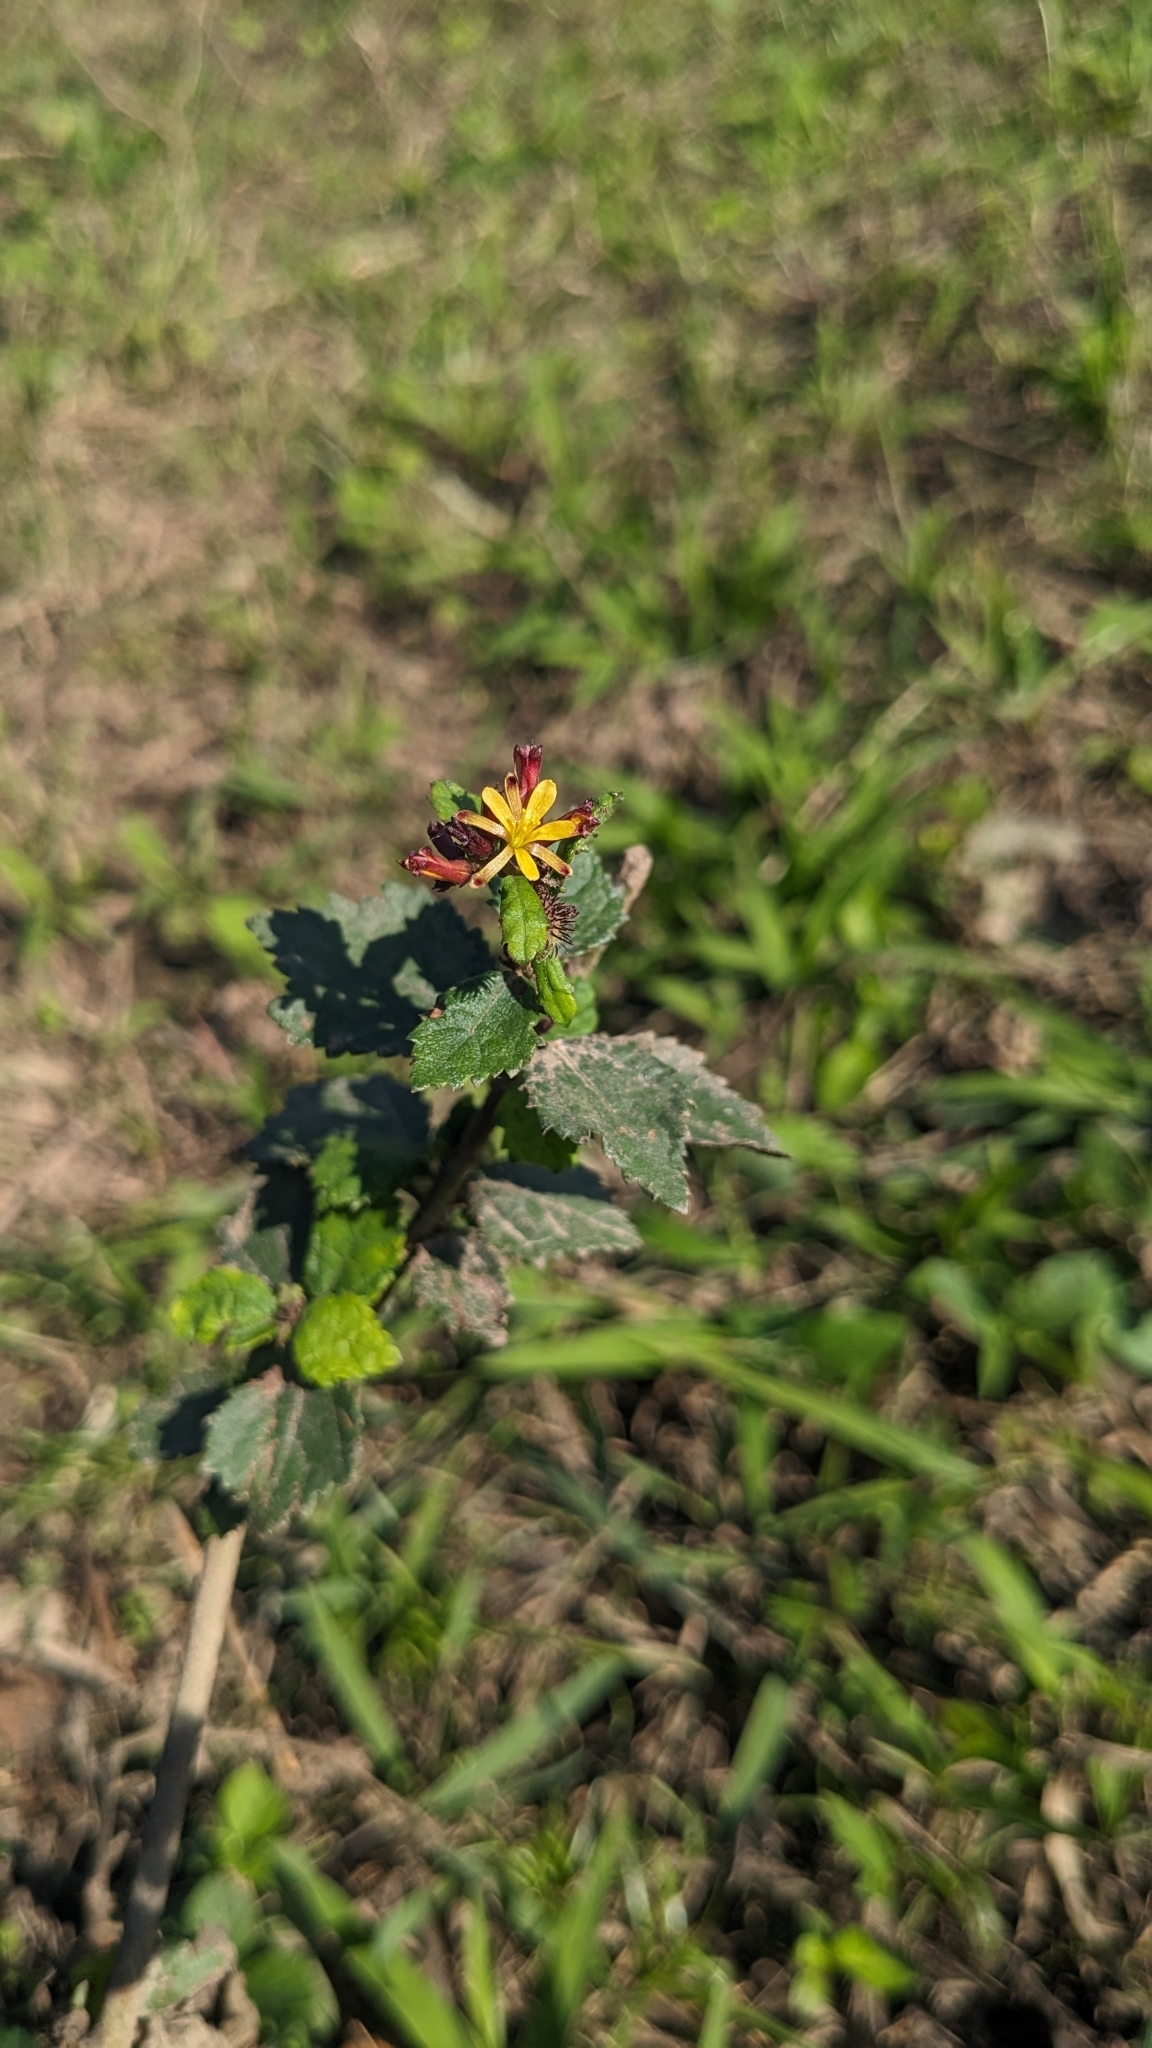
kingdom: Plantae
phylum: Tracheophyta
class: Magnoliopsida
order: Malvales
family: Malvaceae
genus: Triumfetta
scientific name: Triumfetta rhomboidea
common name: Diamond burbark
